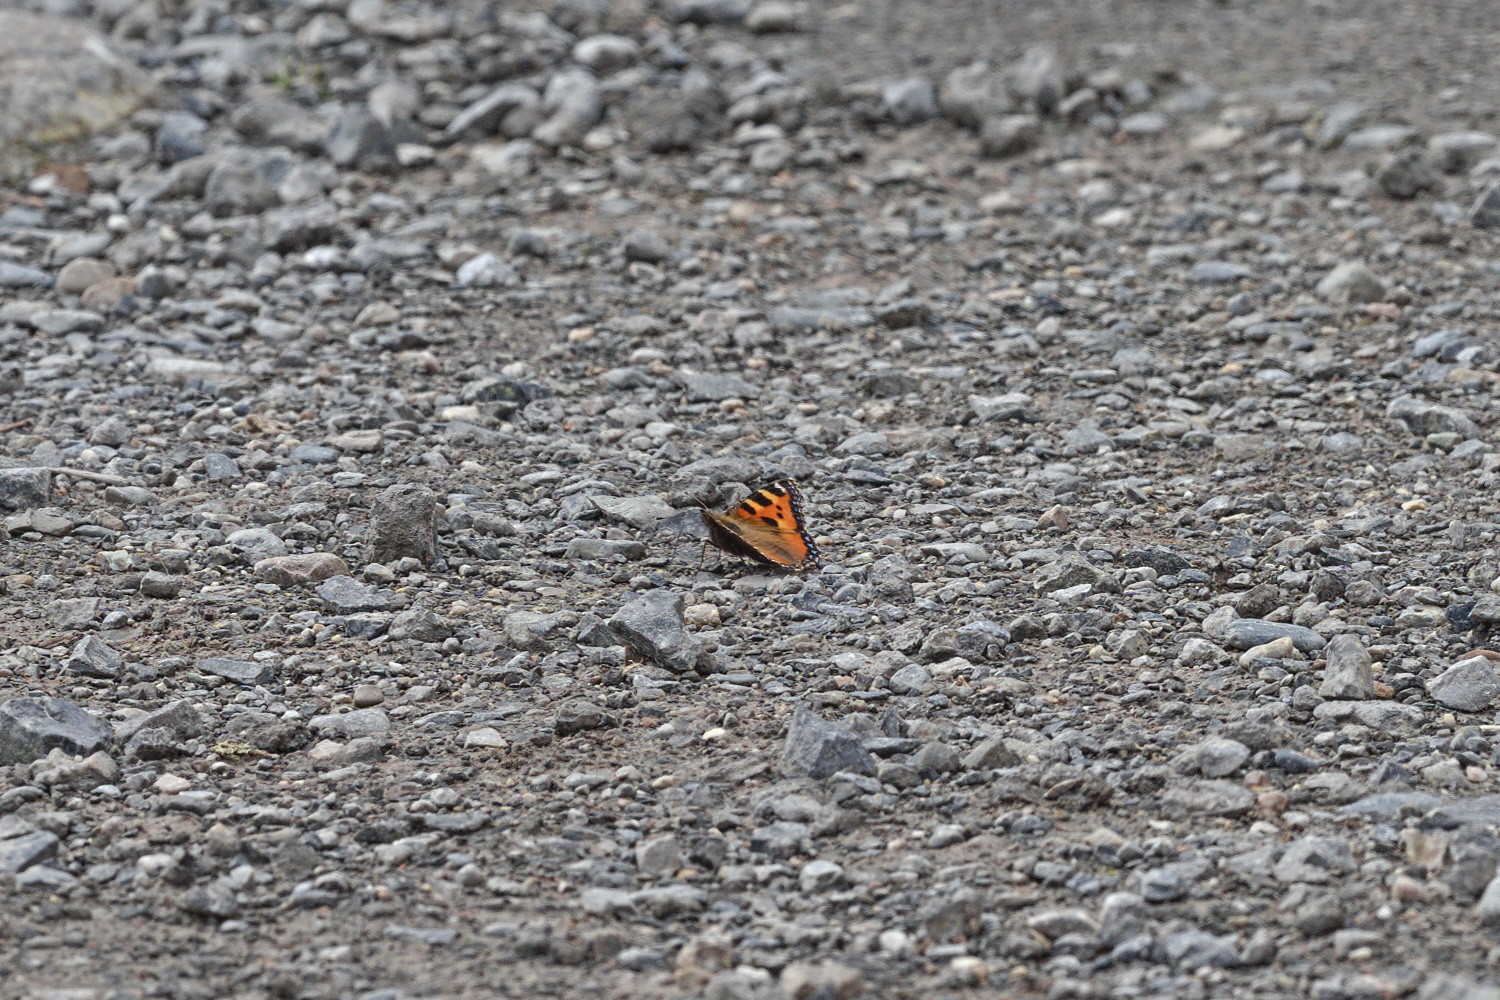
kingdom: Animalia
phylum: Arthropoda
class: Insecta
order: Lepidoptera
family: Nymphalidae
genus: Aglais
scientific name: Aglais urticae
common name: Small tortoiseshell
